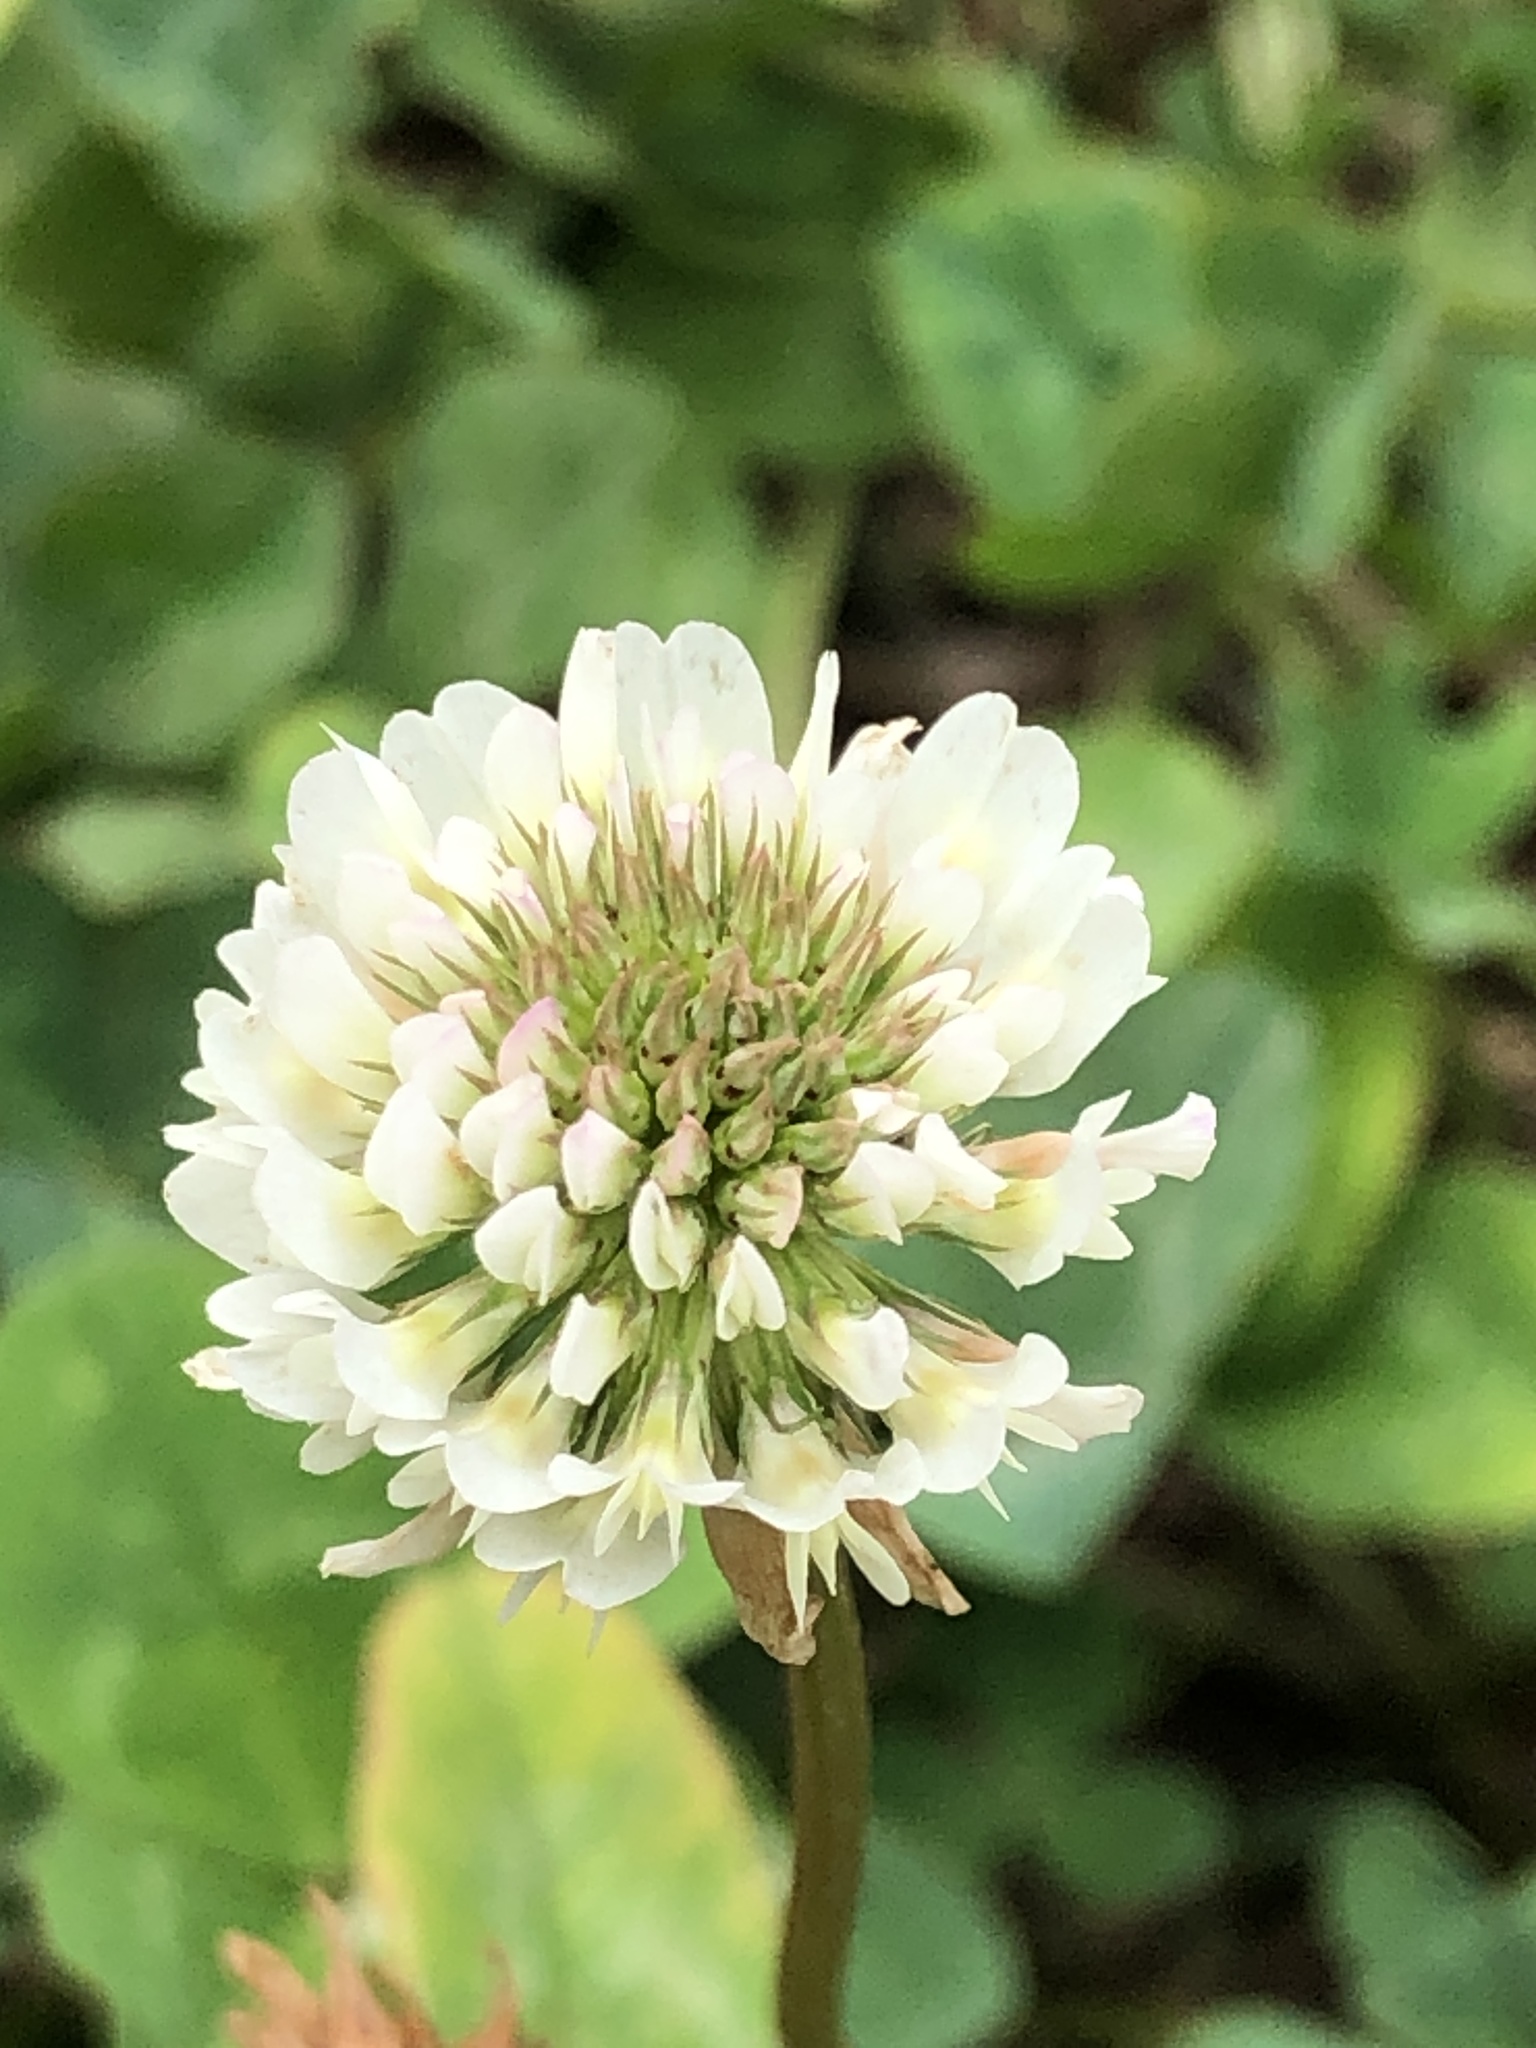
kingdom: Plantae
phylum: Tracheophyta
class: Magnoliopsida
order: Fabales
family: Fabaceae
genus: Trifolium
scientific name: Trifolium repens
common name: White clover
